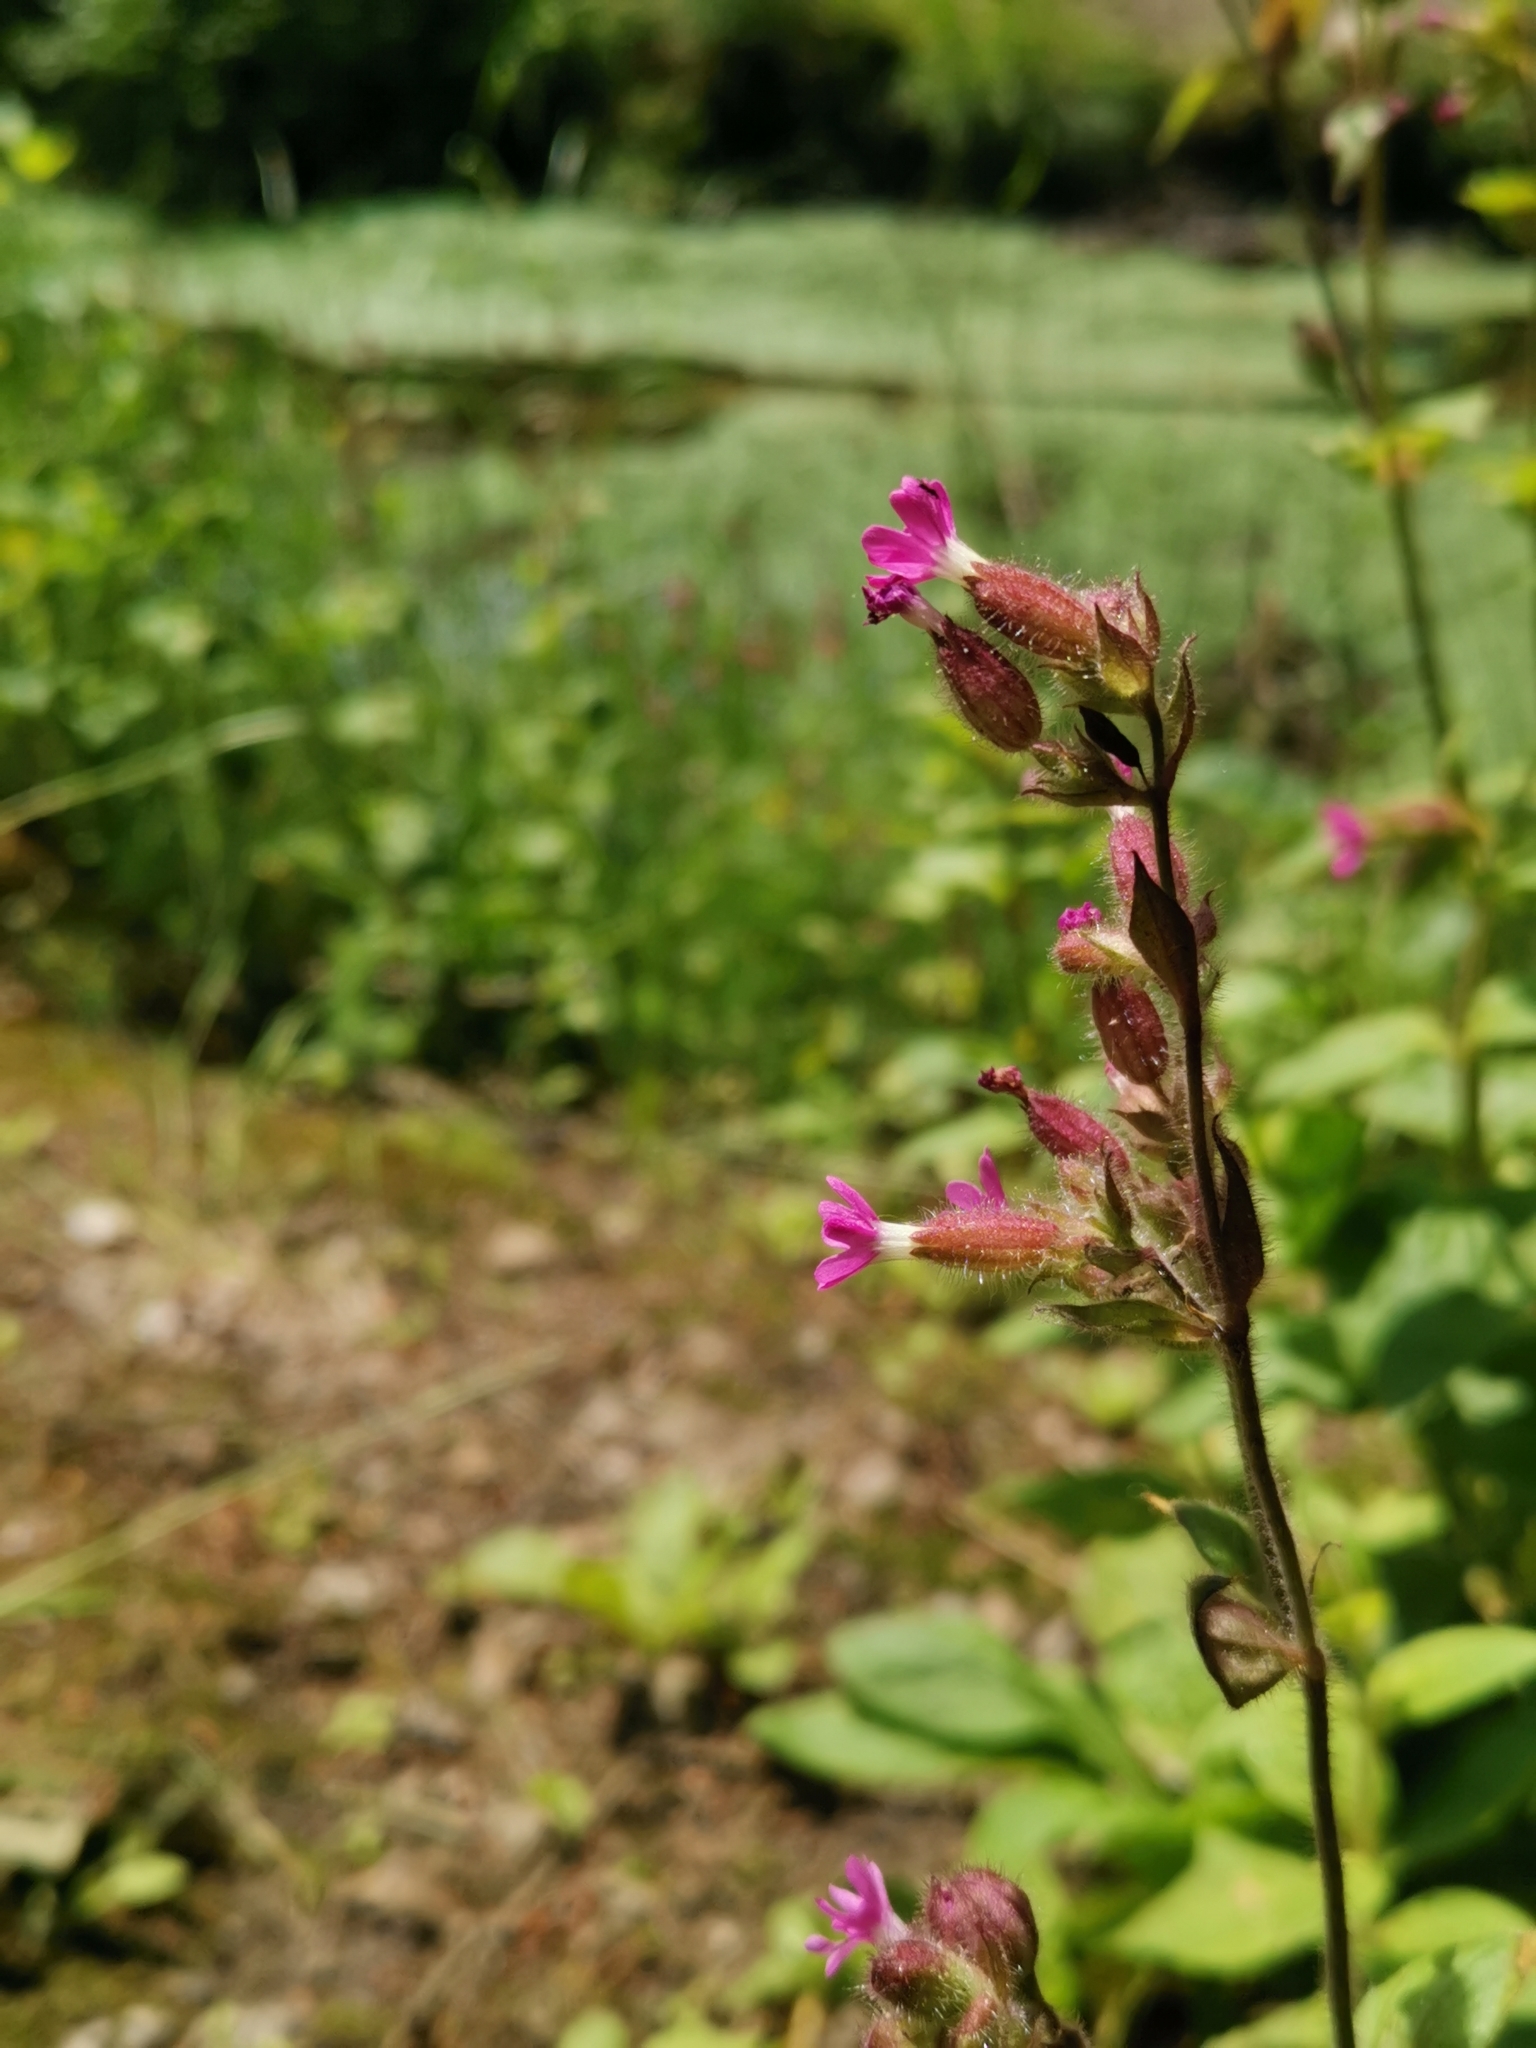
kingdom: Plantae
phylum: Tracheophyta
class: Magnoliopsida
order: Caryophyllales
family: Caryophyllaceae
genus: Silene
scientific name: Silene dioica
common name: Red campion
